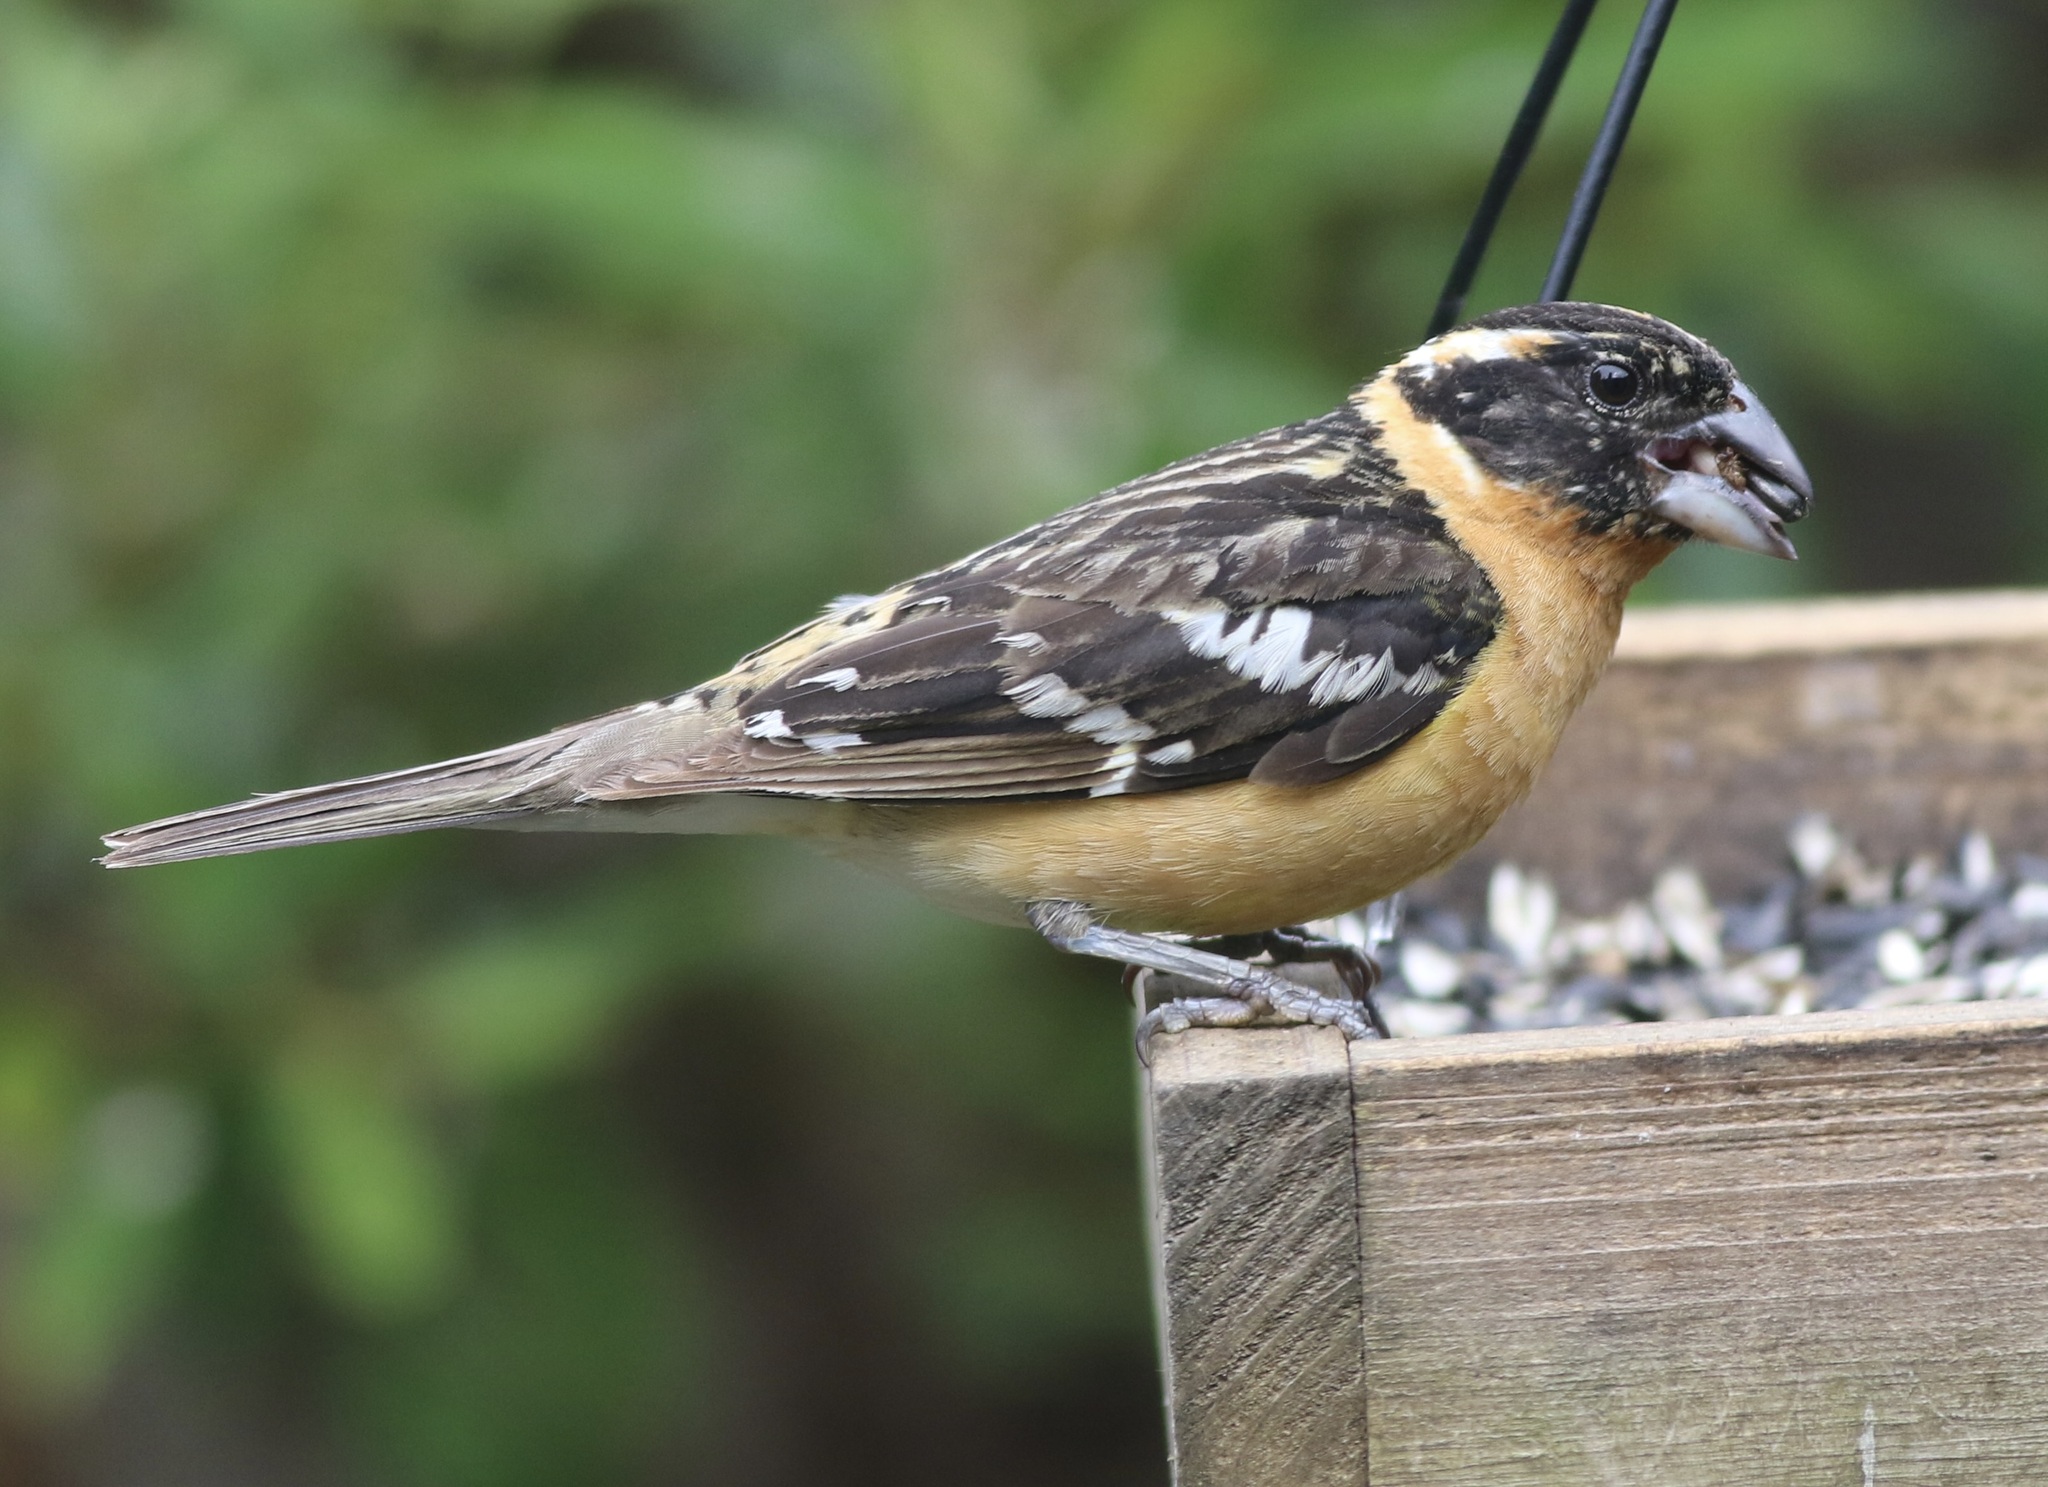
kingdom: Animalia
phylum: Chordata
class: Aves
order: Passeriformes
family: Cardinalidae
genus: Pheucticus
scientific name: Pheucticus melanocephalus
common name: Black-headed grosbeak
